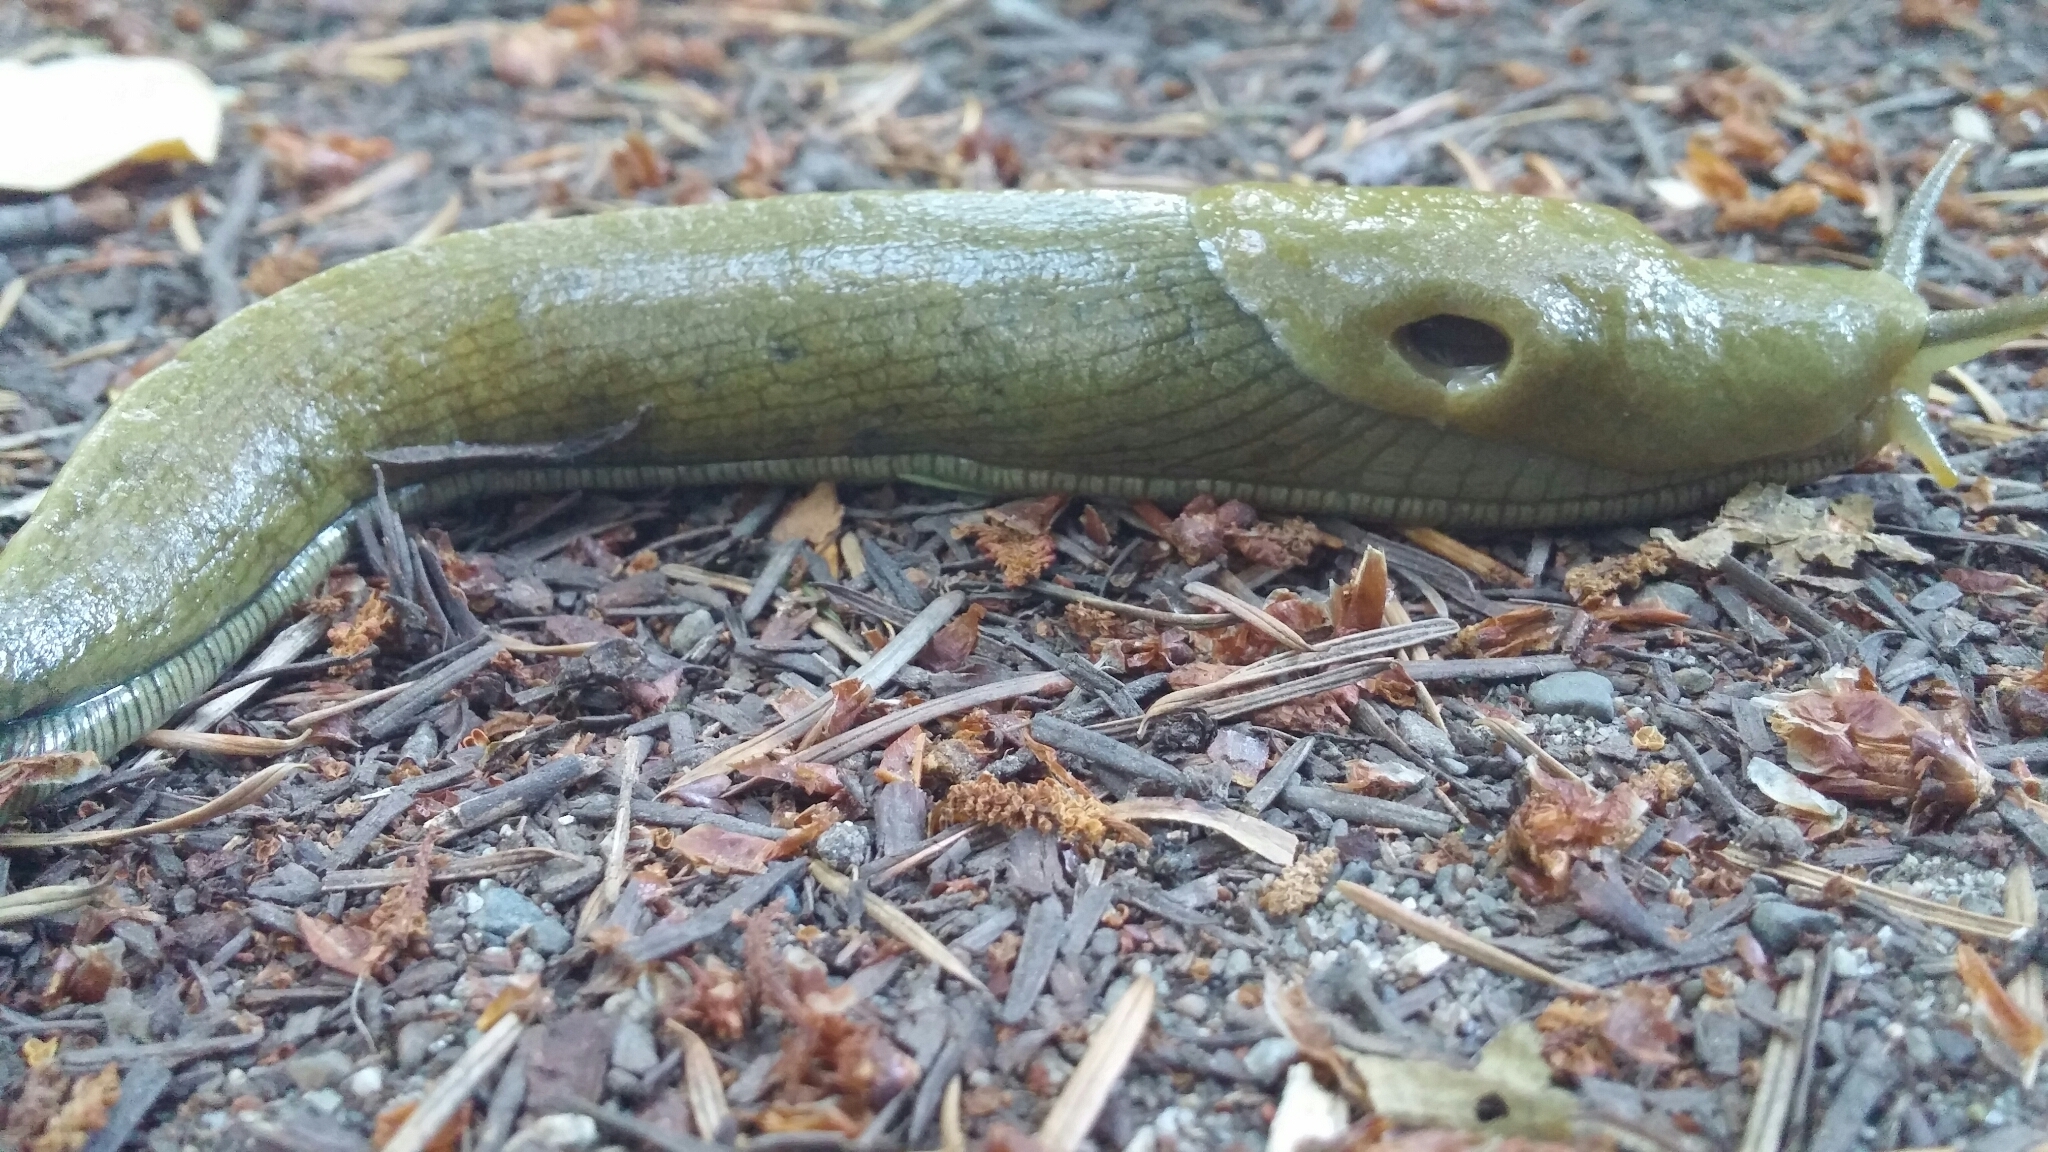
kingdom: Animalia
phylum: Mollusca
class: Gastropoda
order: Stylommatophora
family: Ariolimacidae
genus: Ariolimax
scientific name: Ariolimax columbianus
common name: Pacific banana slug
